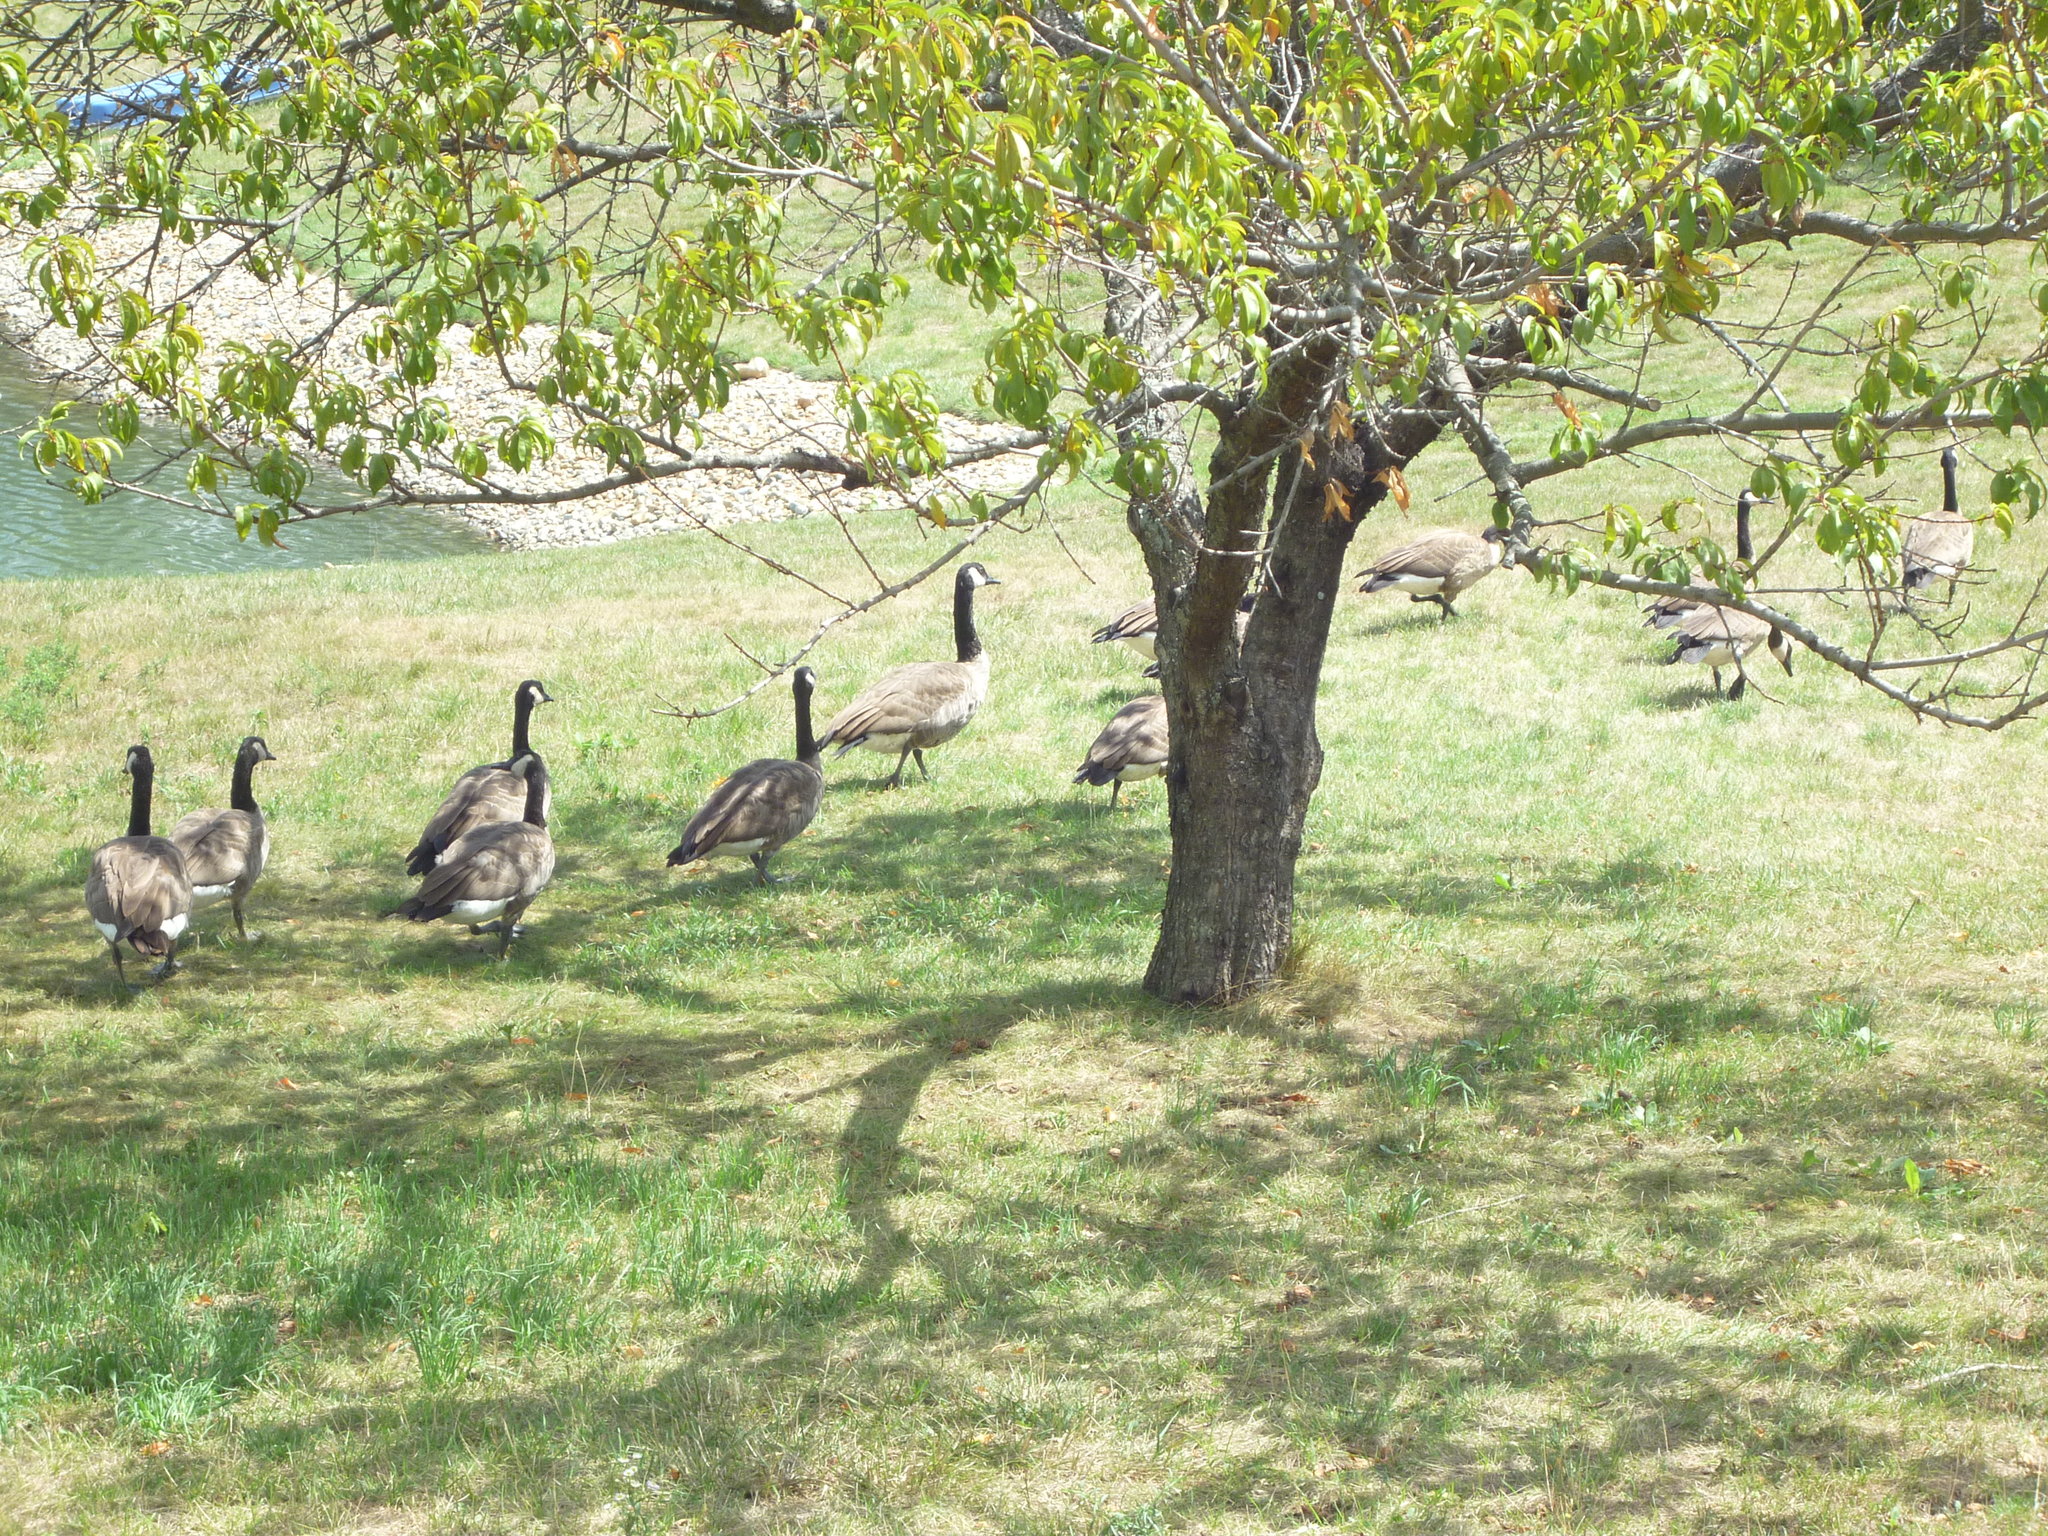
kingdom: Animalia
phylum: Chordata
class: Aves
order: Anseriformes
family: Anatidae
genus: Branta
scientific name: Branta canadensis
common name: Canada goose
